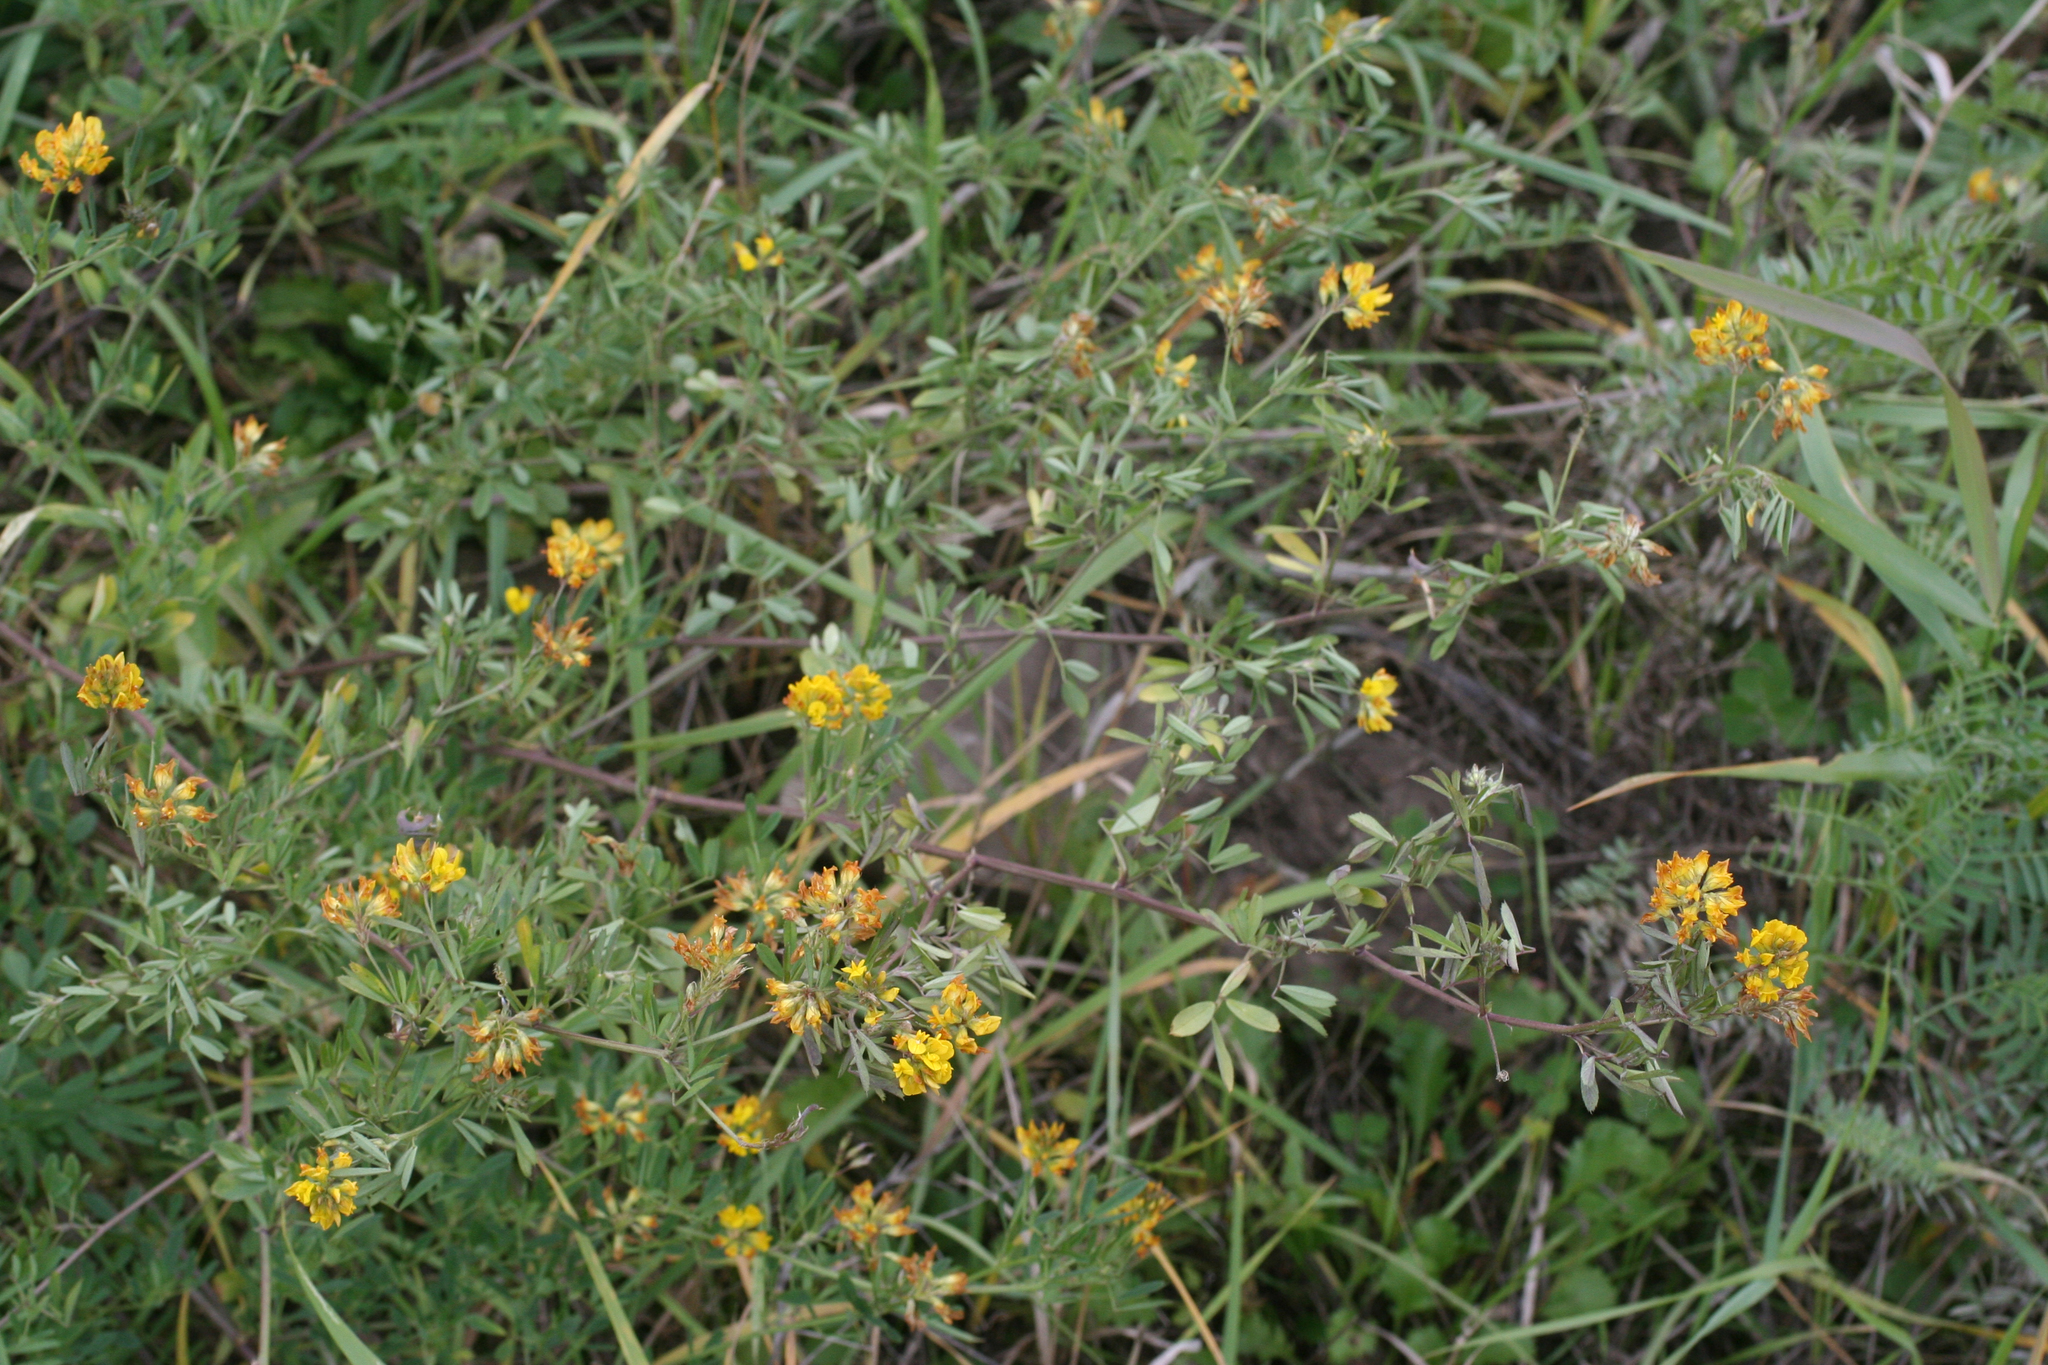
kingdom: Plantae
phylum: Tracheophyta
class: Magnoliopsida
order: Fabales
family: Fabaceae
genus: Medicago
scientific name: Medicago falcata
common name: Sickle medick
